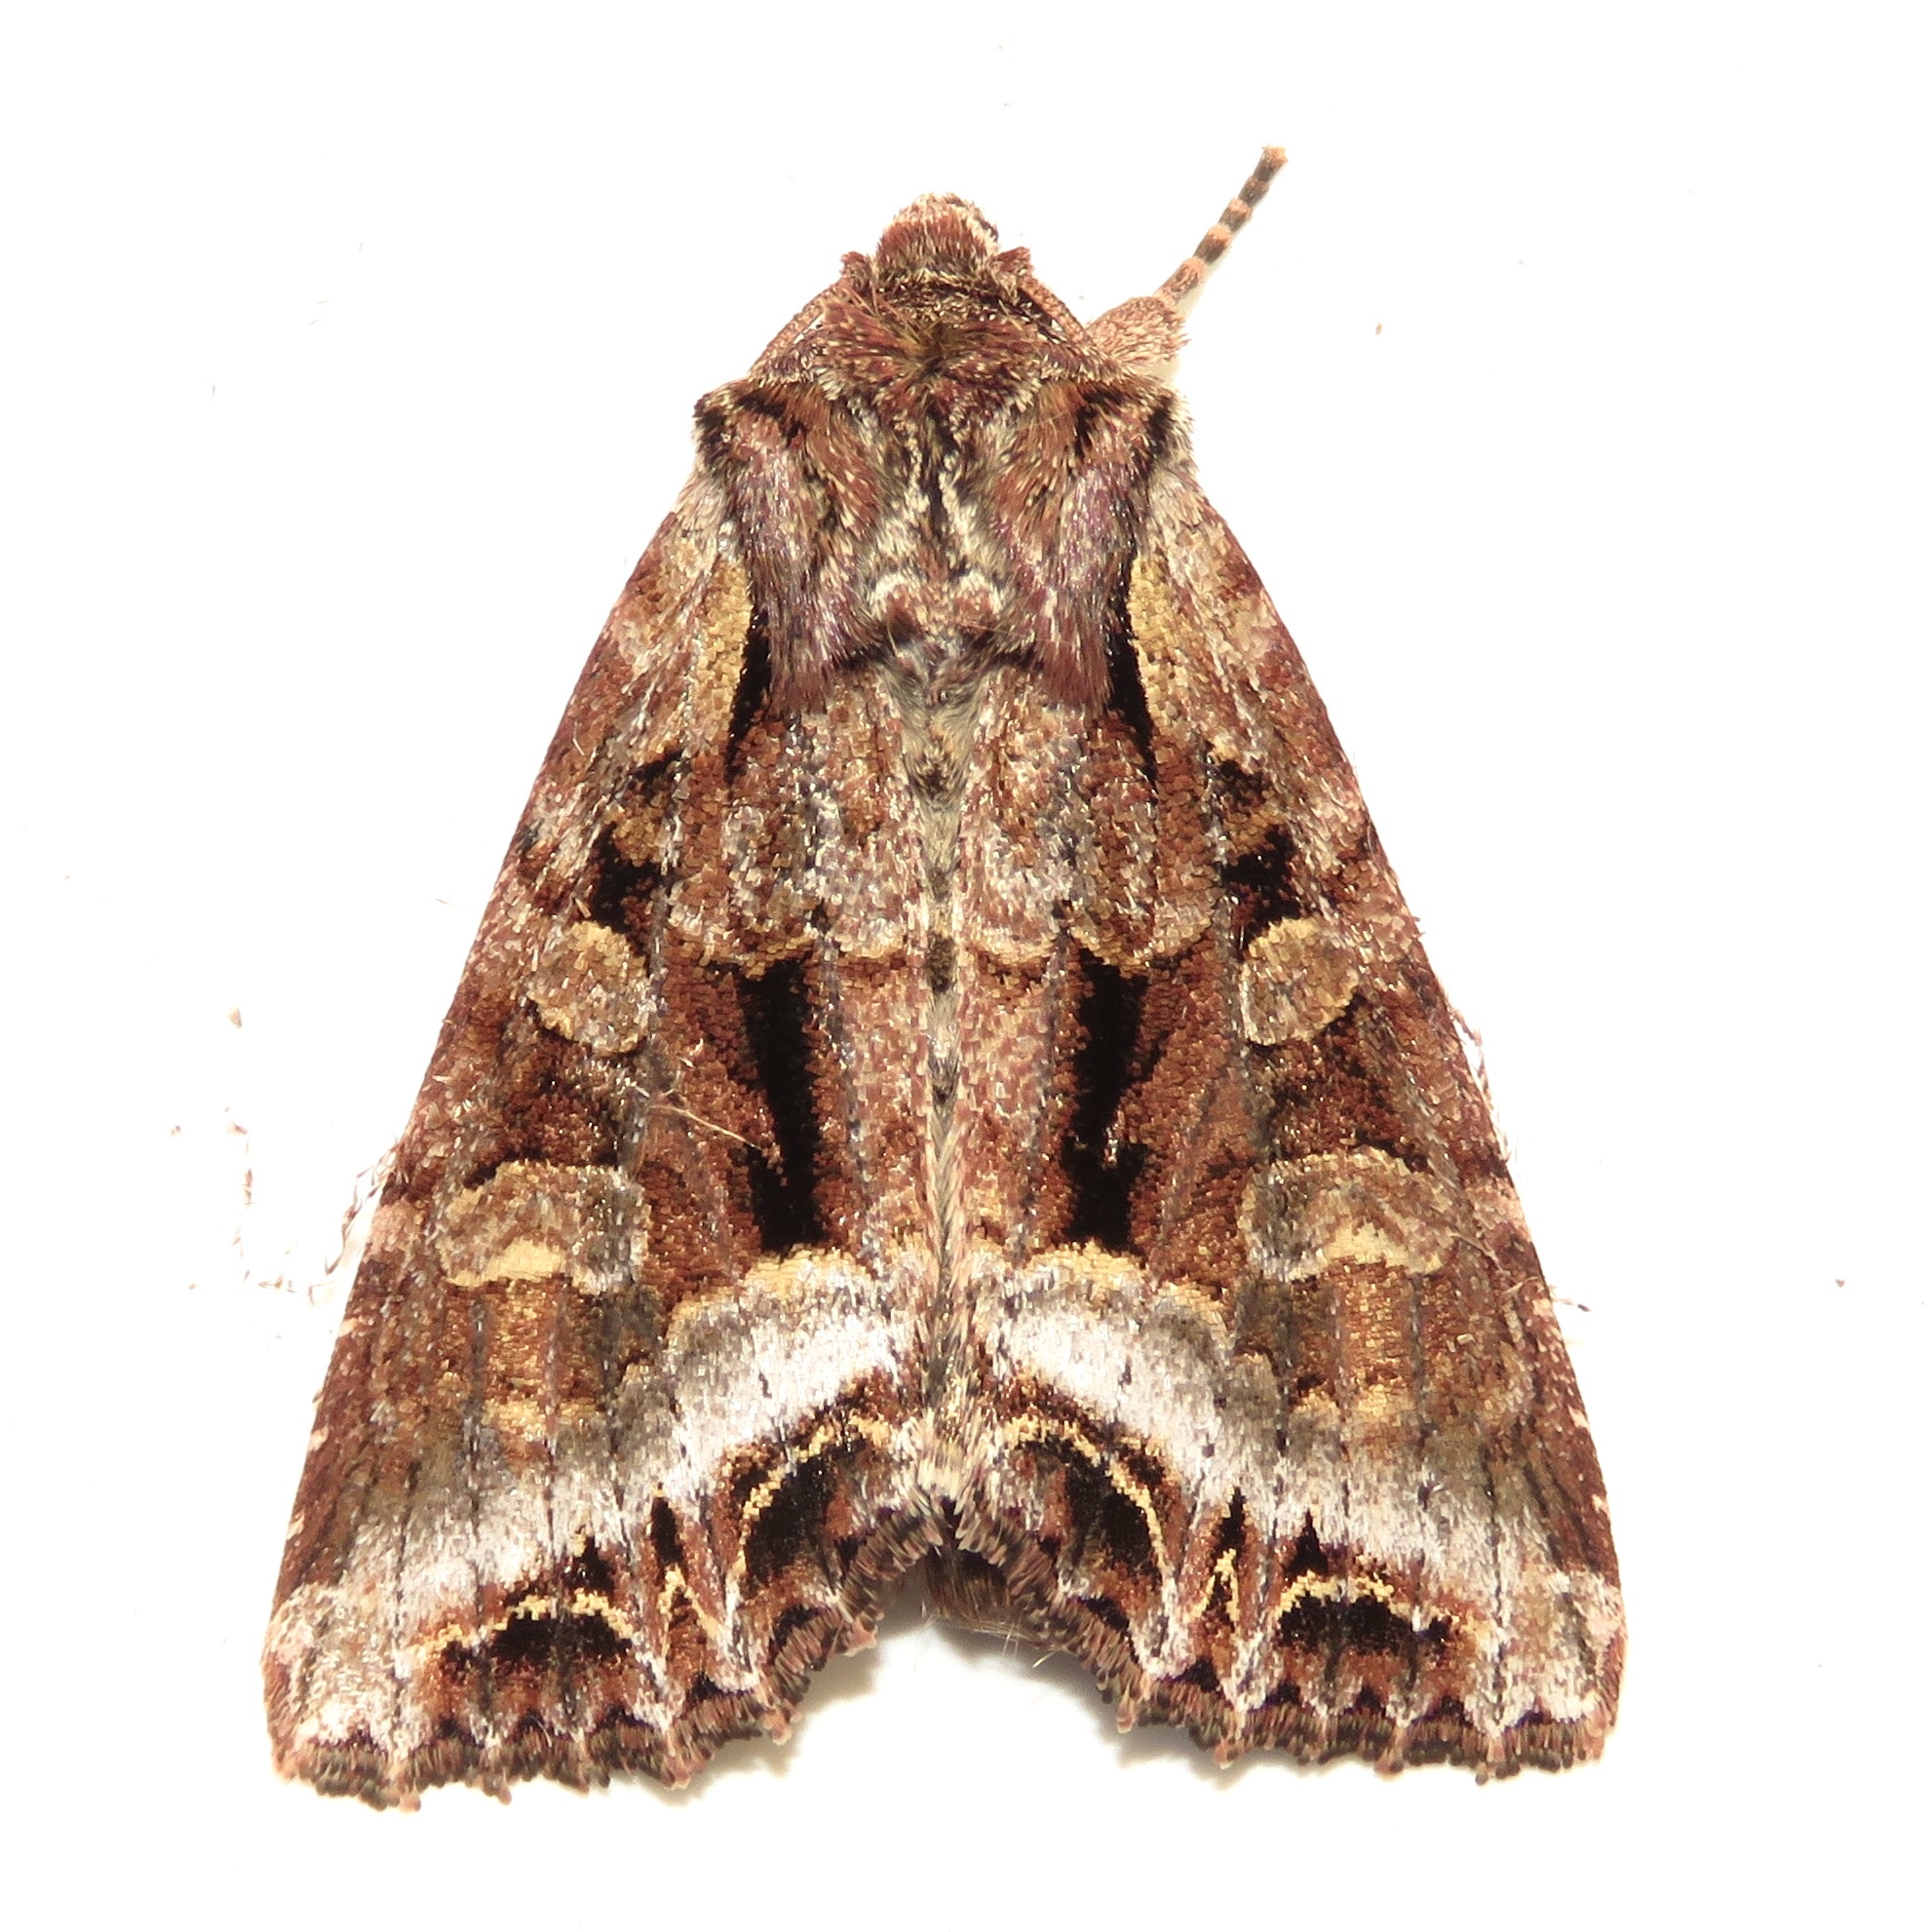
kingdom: Animalia
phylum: Arthropoda
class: Insecta
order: Lepidoptera
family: Noctuidae
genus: Lacanobia
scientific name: Lacanobia grandis
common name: Grand arches moth
